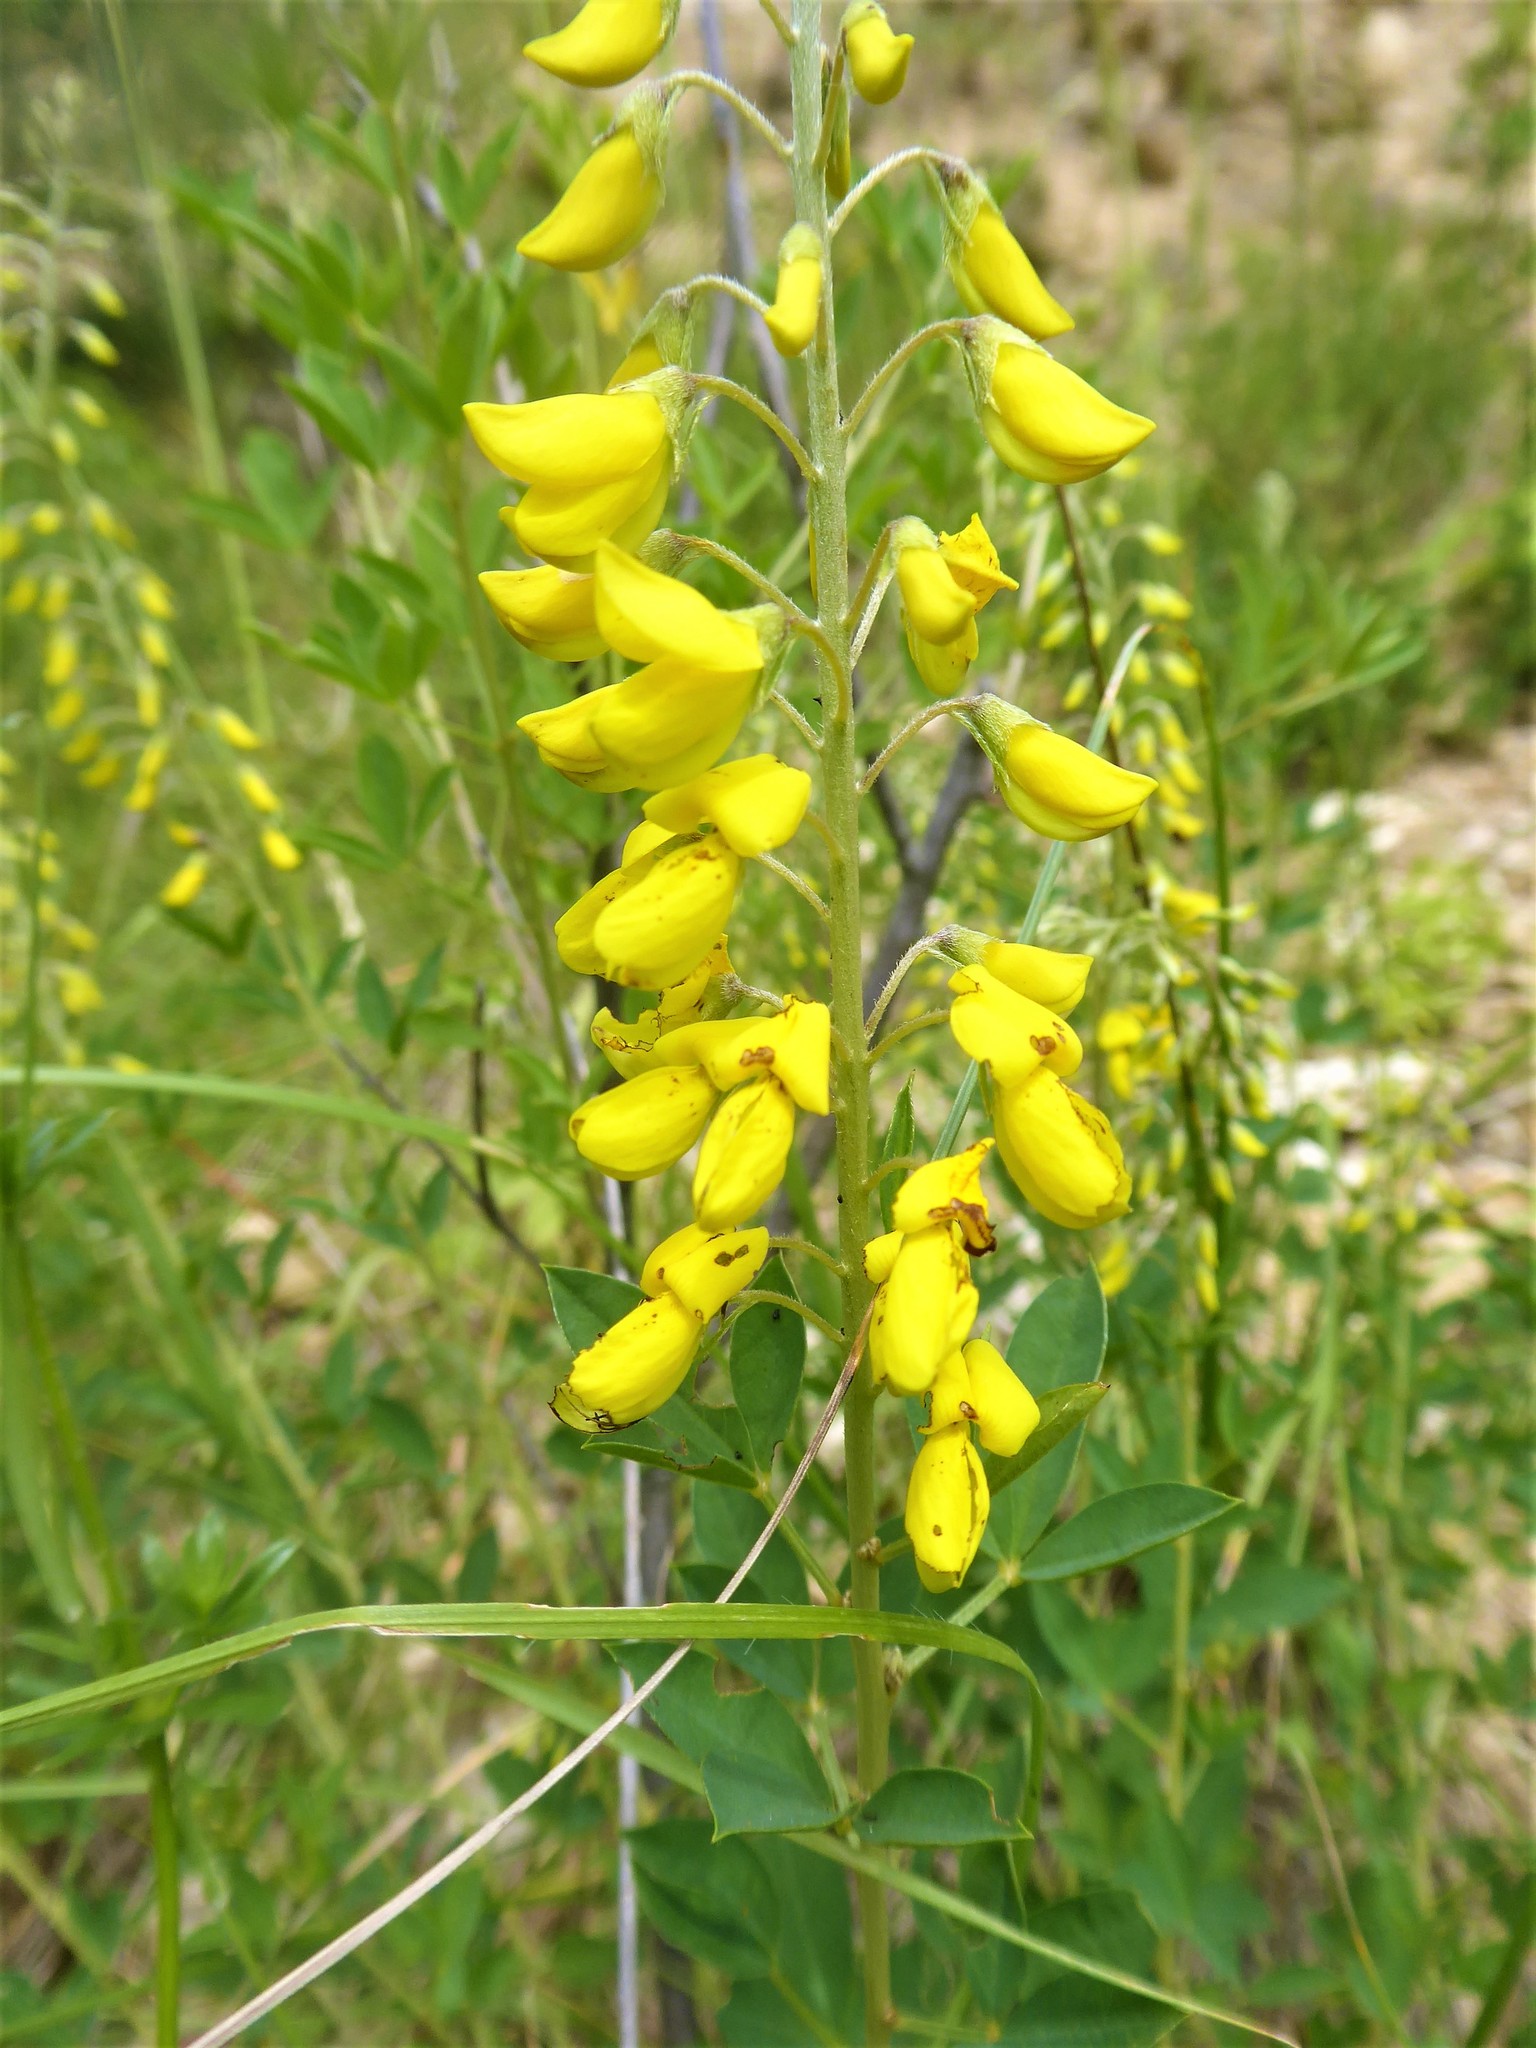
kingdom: Plantae
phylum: Tracheophyta
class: Magnoliopsida
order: Fabales
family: Fabaceae
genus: Cytisus
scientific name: Cytisus nigricans
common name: Black broom
